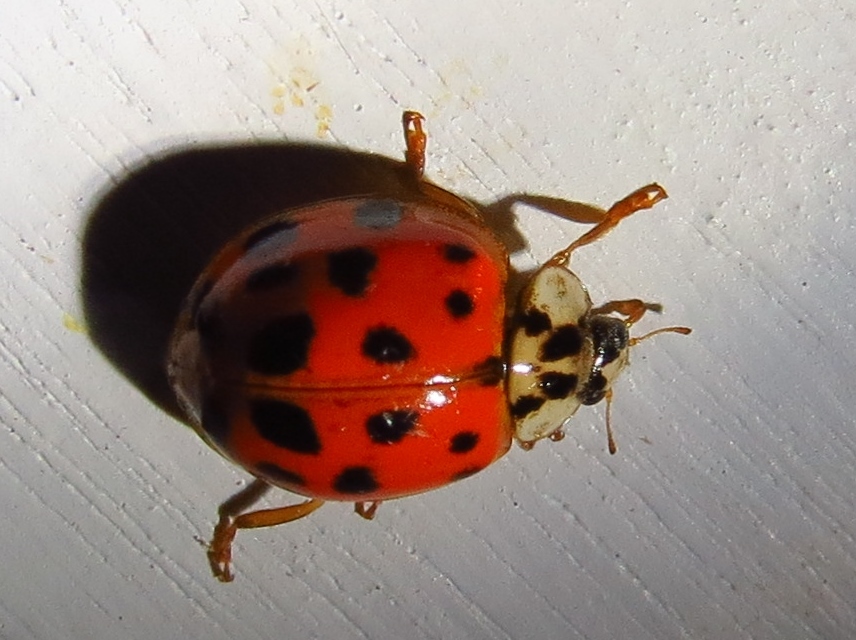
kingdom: Animalia
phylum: Arthropoda
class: Insecta
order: Coleoptera
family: Coccinellidae
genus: Harmonia
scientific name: Harmonia axyridis
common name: Harlequin ladybird
